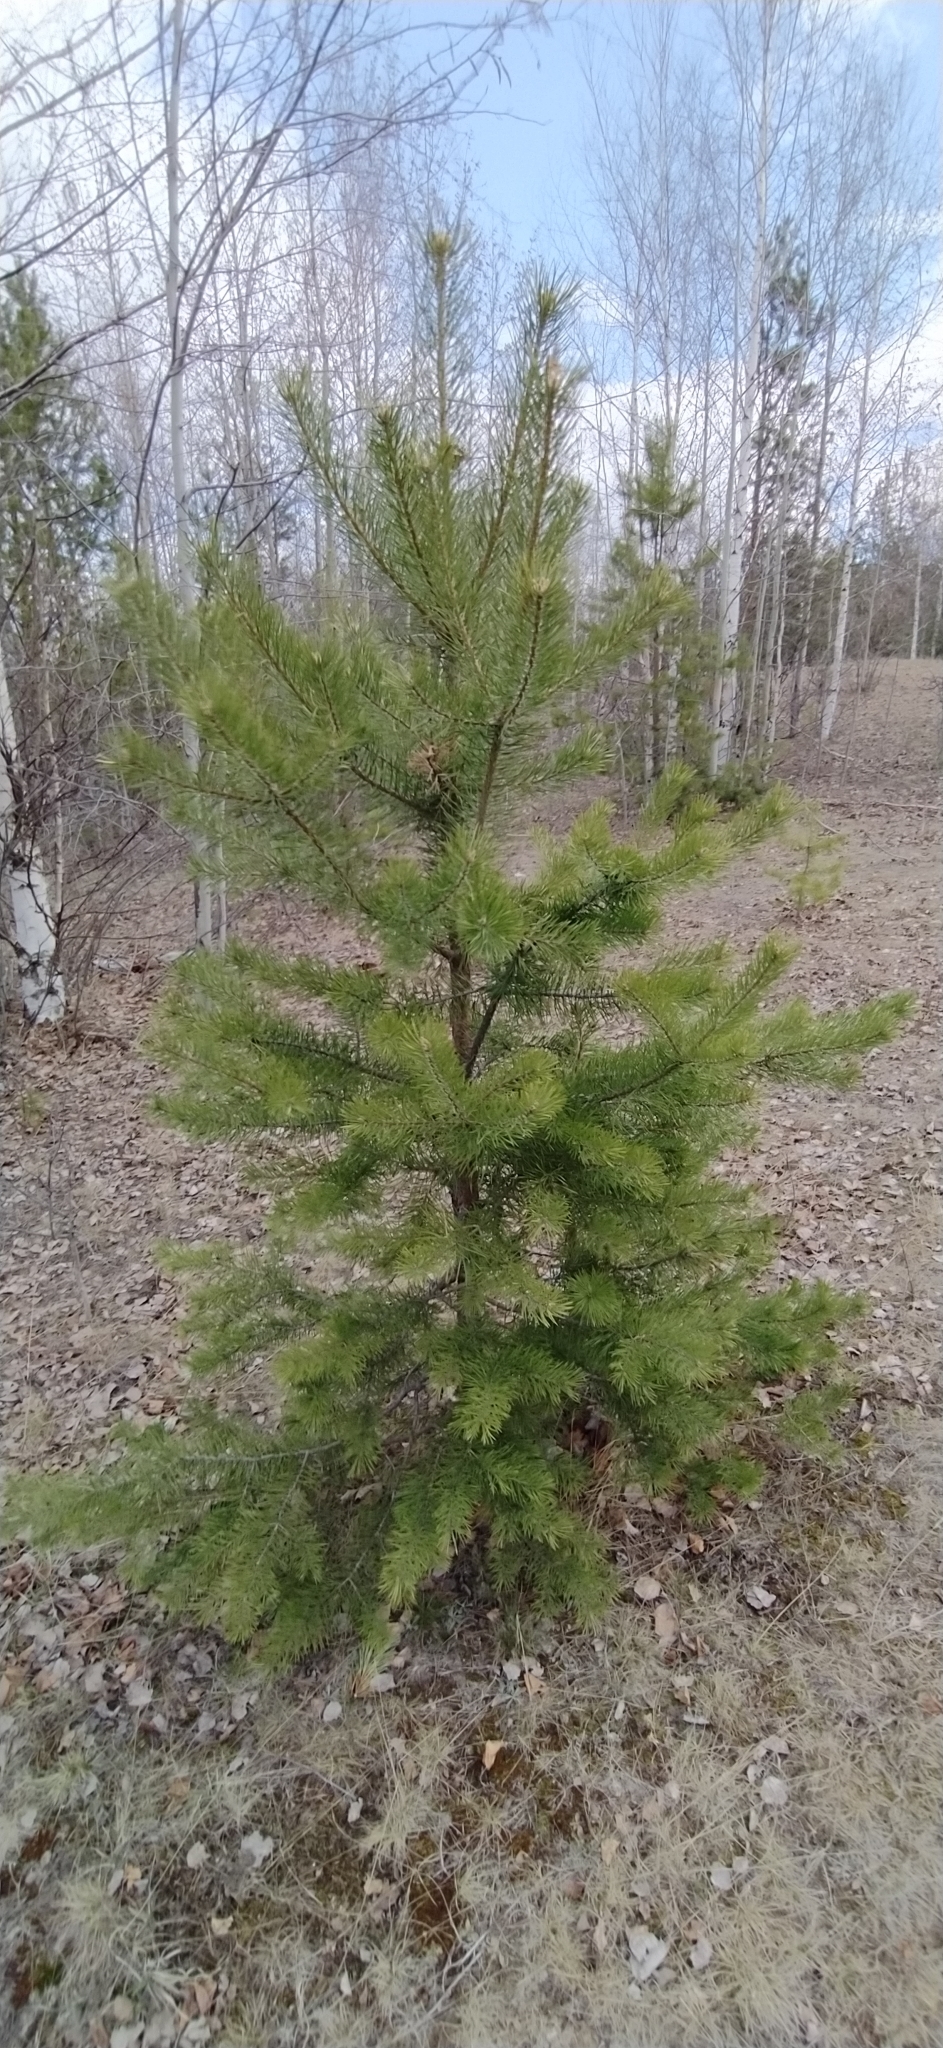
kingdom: Plantae
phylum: Tracheophyta
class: Pinopsida
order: Pinales
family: Pinaceae
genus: Pinus
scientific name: Pinus sylvestris
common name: Scots pine
